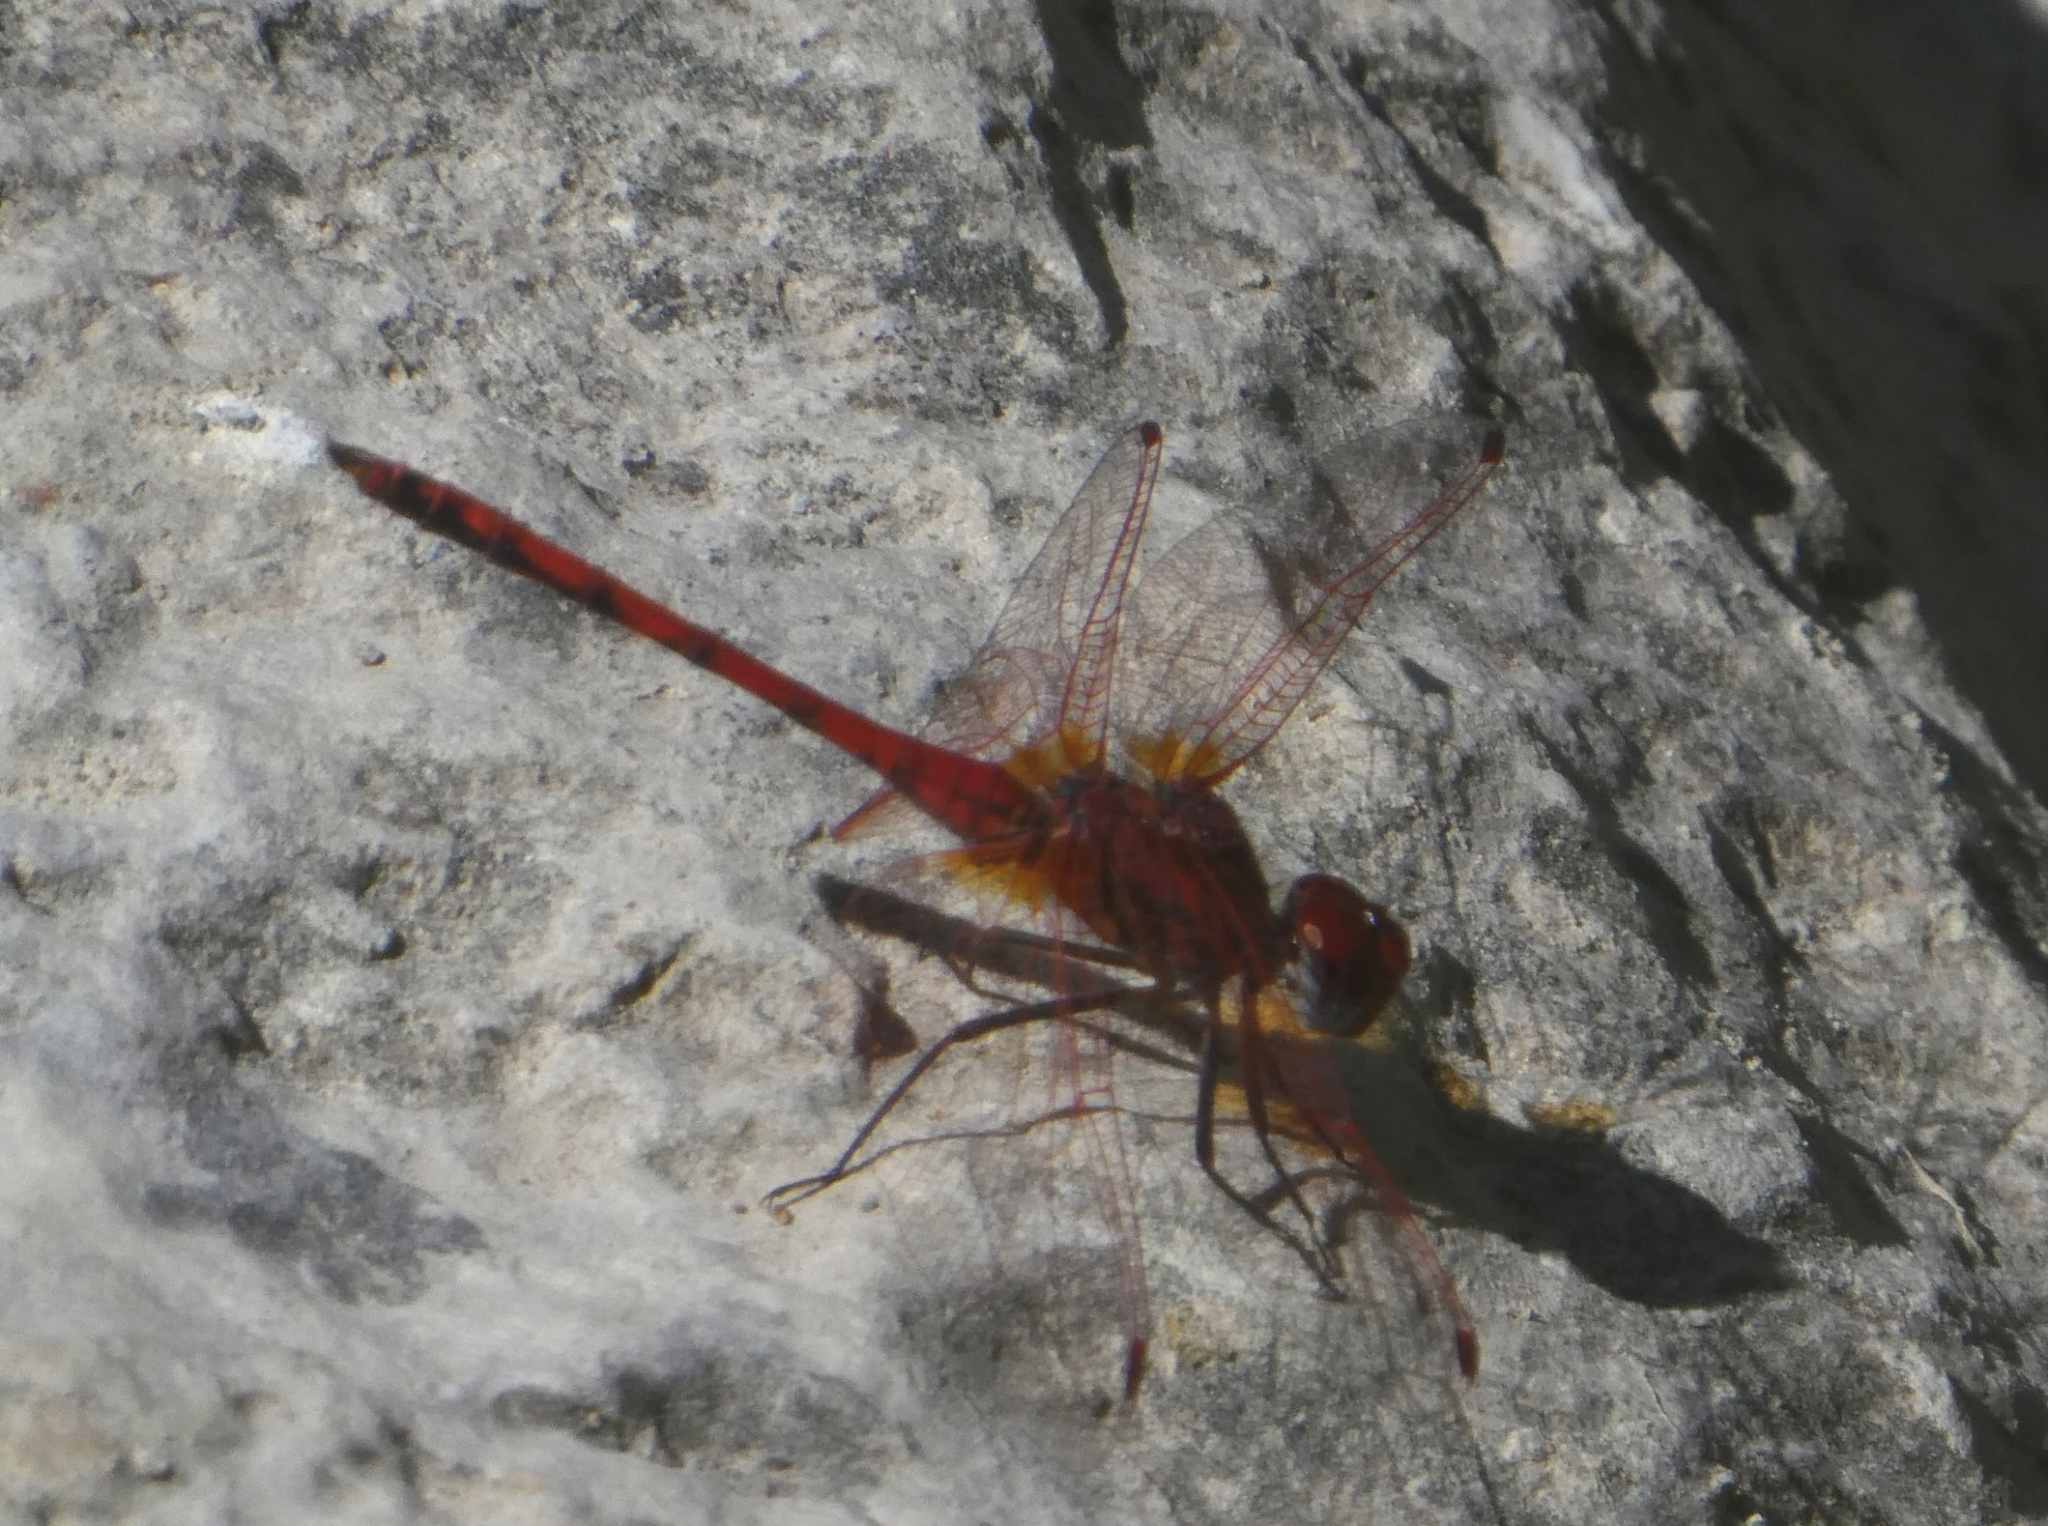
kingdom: Animalia
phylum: Arthropoda
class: Insecta
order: Odonata
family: Libellulidae
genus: Trithemis
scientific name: Trithemis arteriosa
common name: Red-veined dropwing
